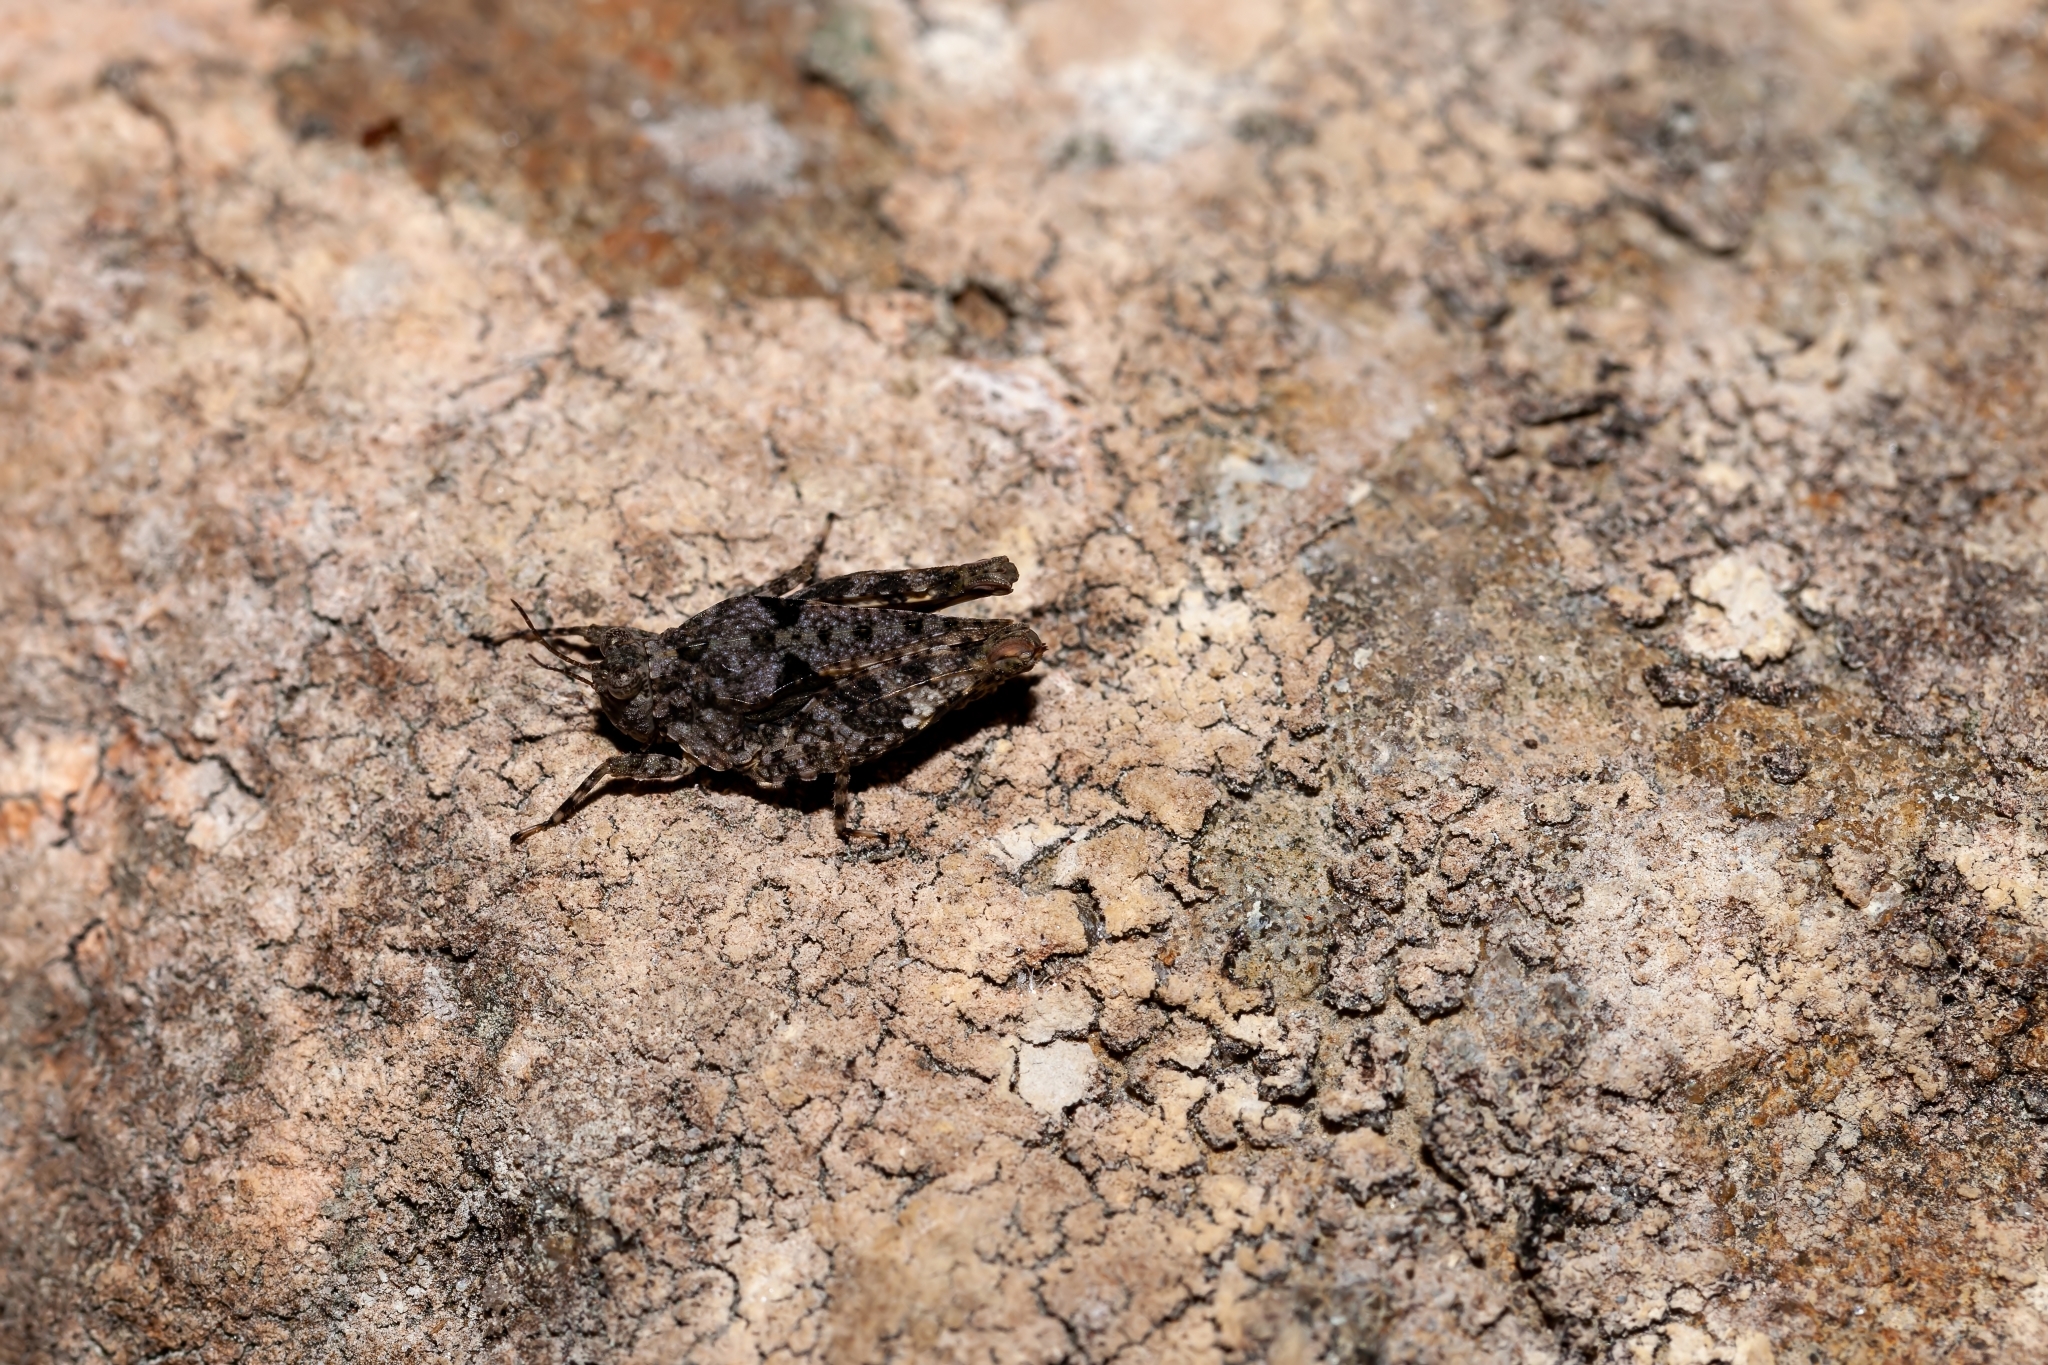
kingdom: Animalia
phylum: Arthropoda
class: Insecta
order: Orthoptera
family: Tetrigidae
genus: Paratettix
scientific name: Paratettix mexicanus
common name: Mexican pygmy grasshopper
